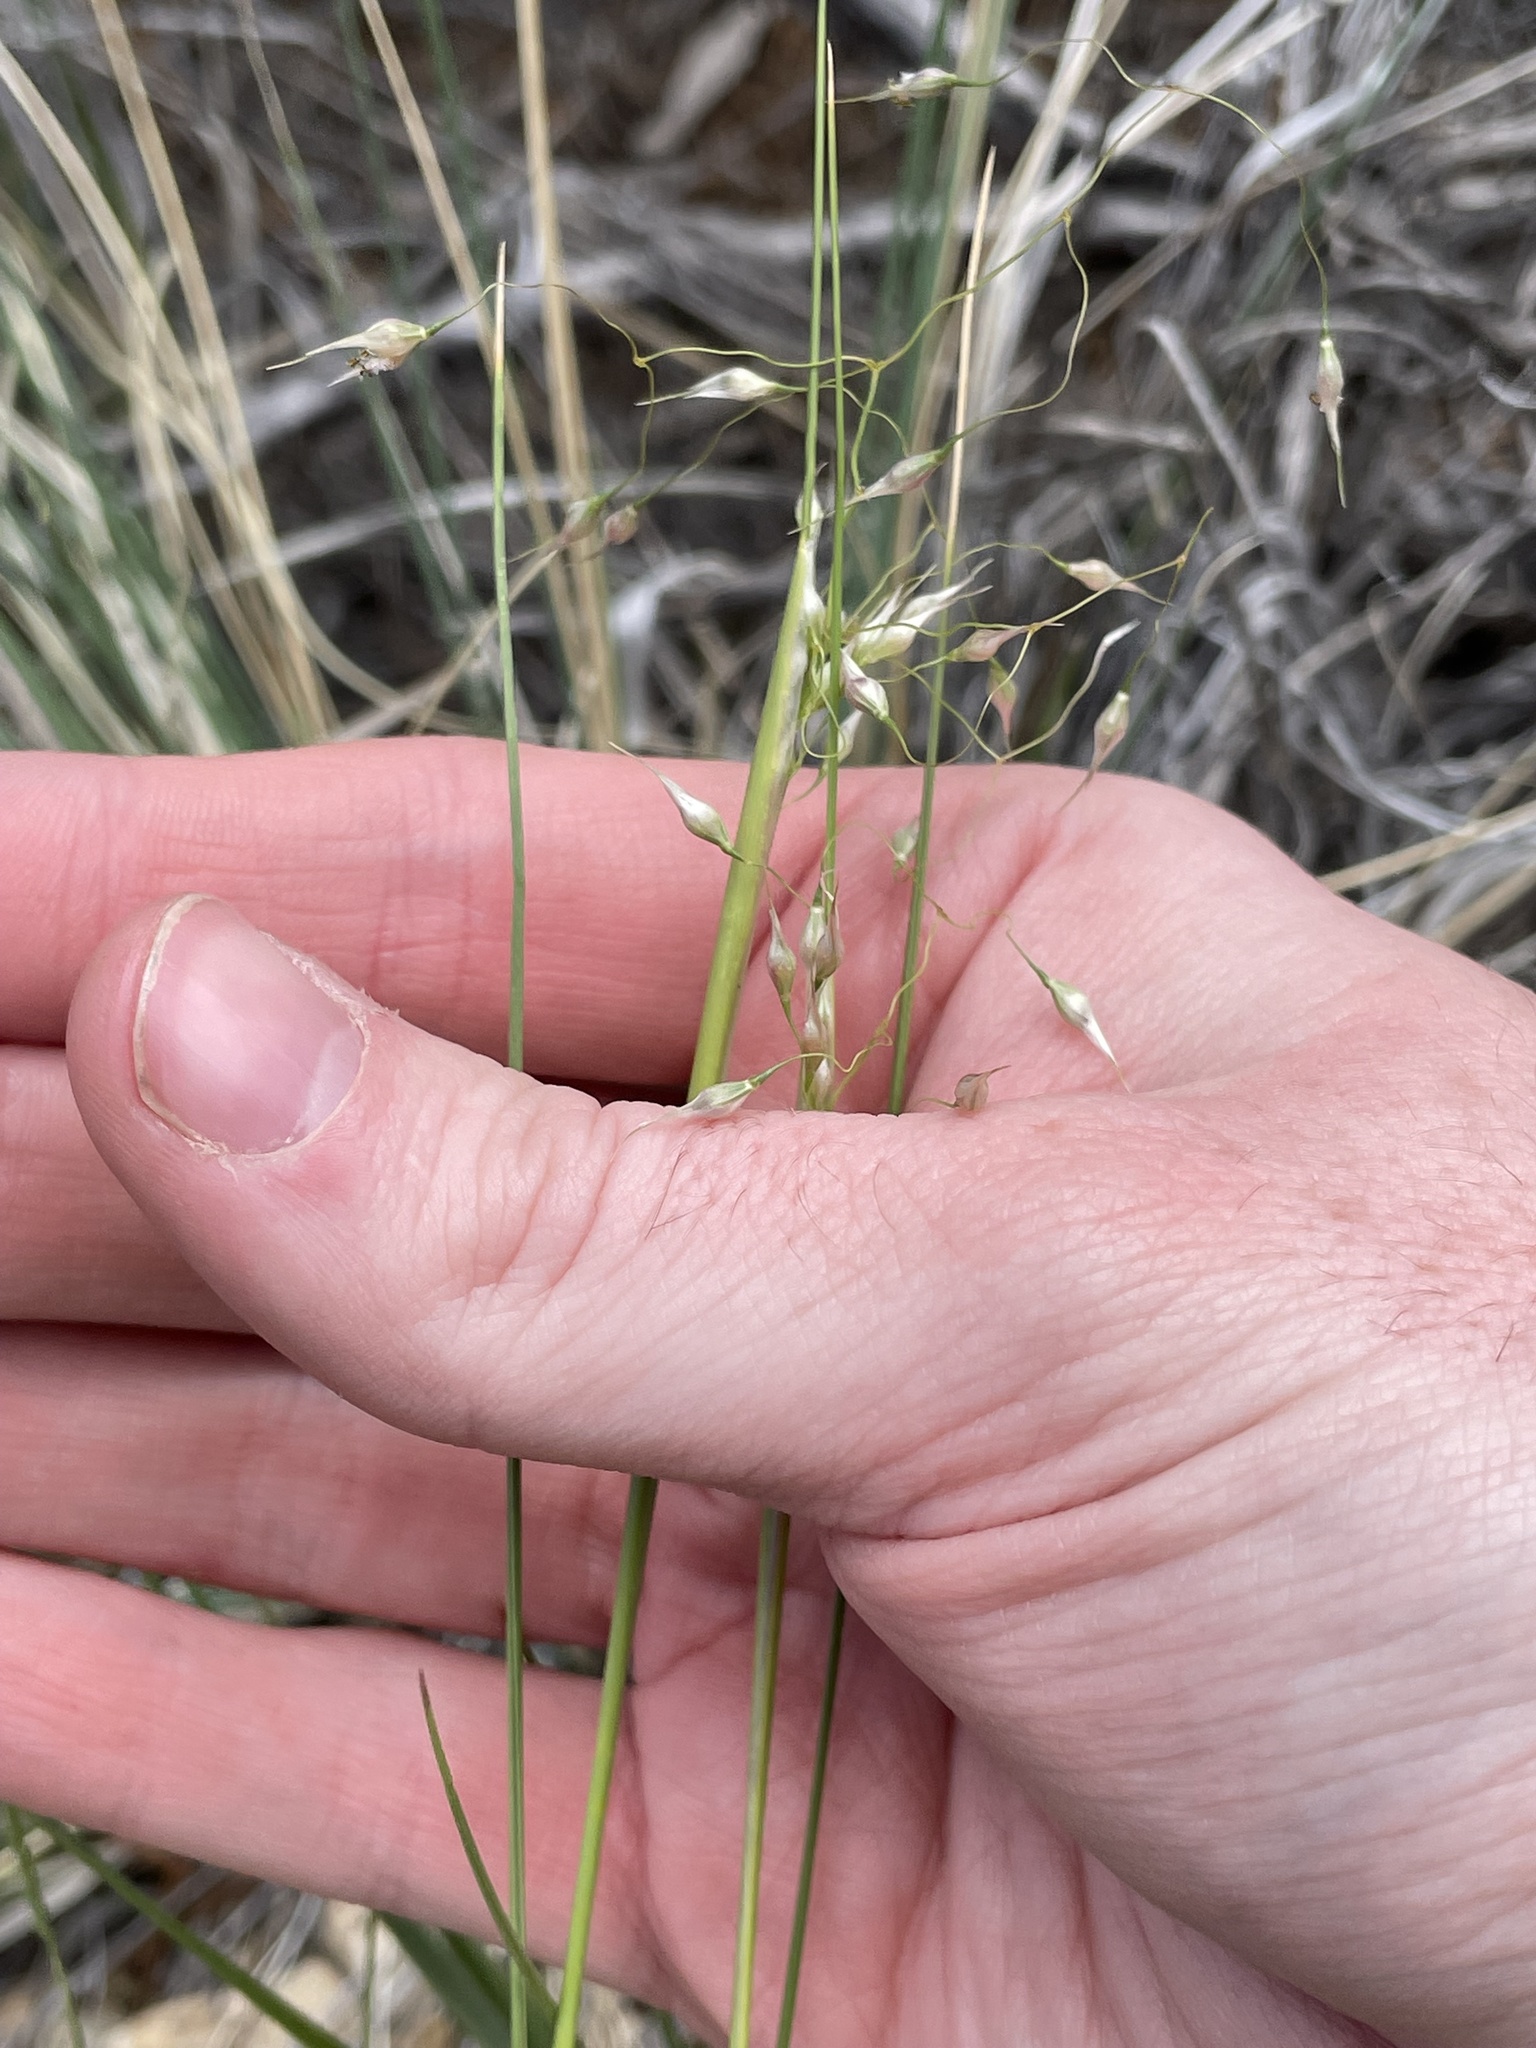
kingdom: Plantae
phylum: Tracheophyta
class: Liliopsida
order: Poales
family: Poaceae
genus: Eriocoma
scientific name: Eriocoma hymenoides
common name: Indian mountain ricegrass
